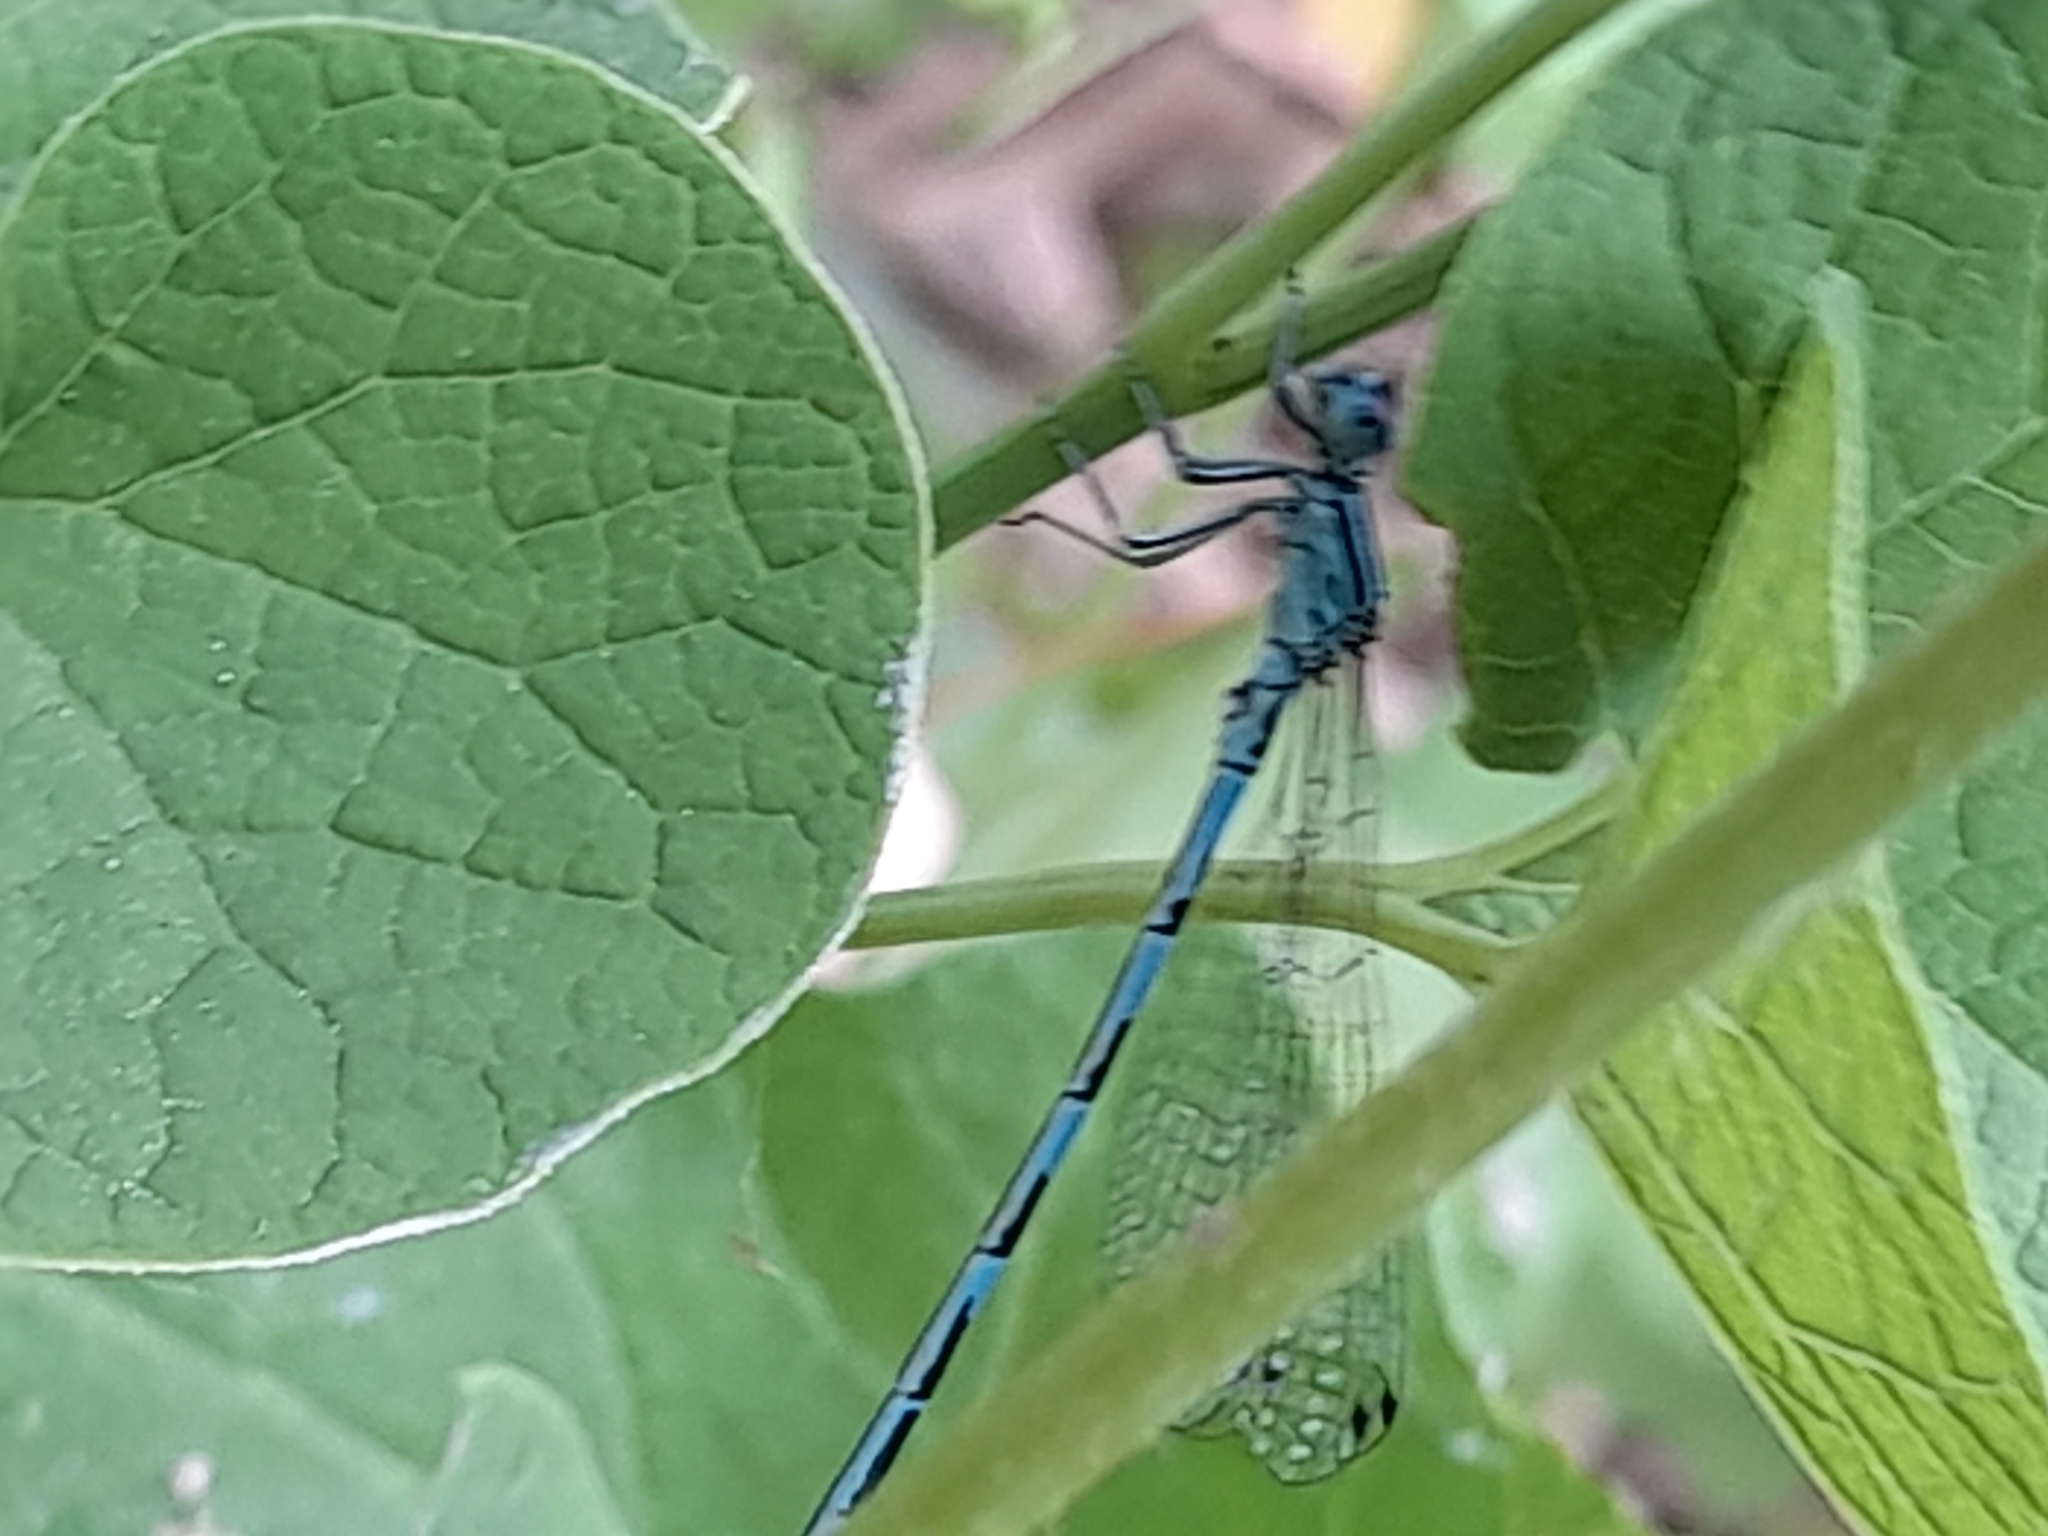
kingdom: Animalia
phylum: Arthropoda
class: Insecta
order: Odonata
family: Coenagrionidae
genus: Coenagrion
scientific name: Coenagrion mercuriale
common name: Southern damselfly
